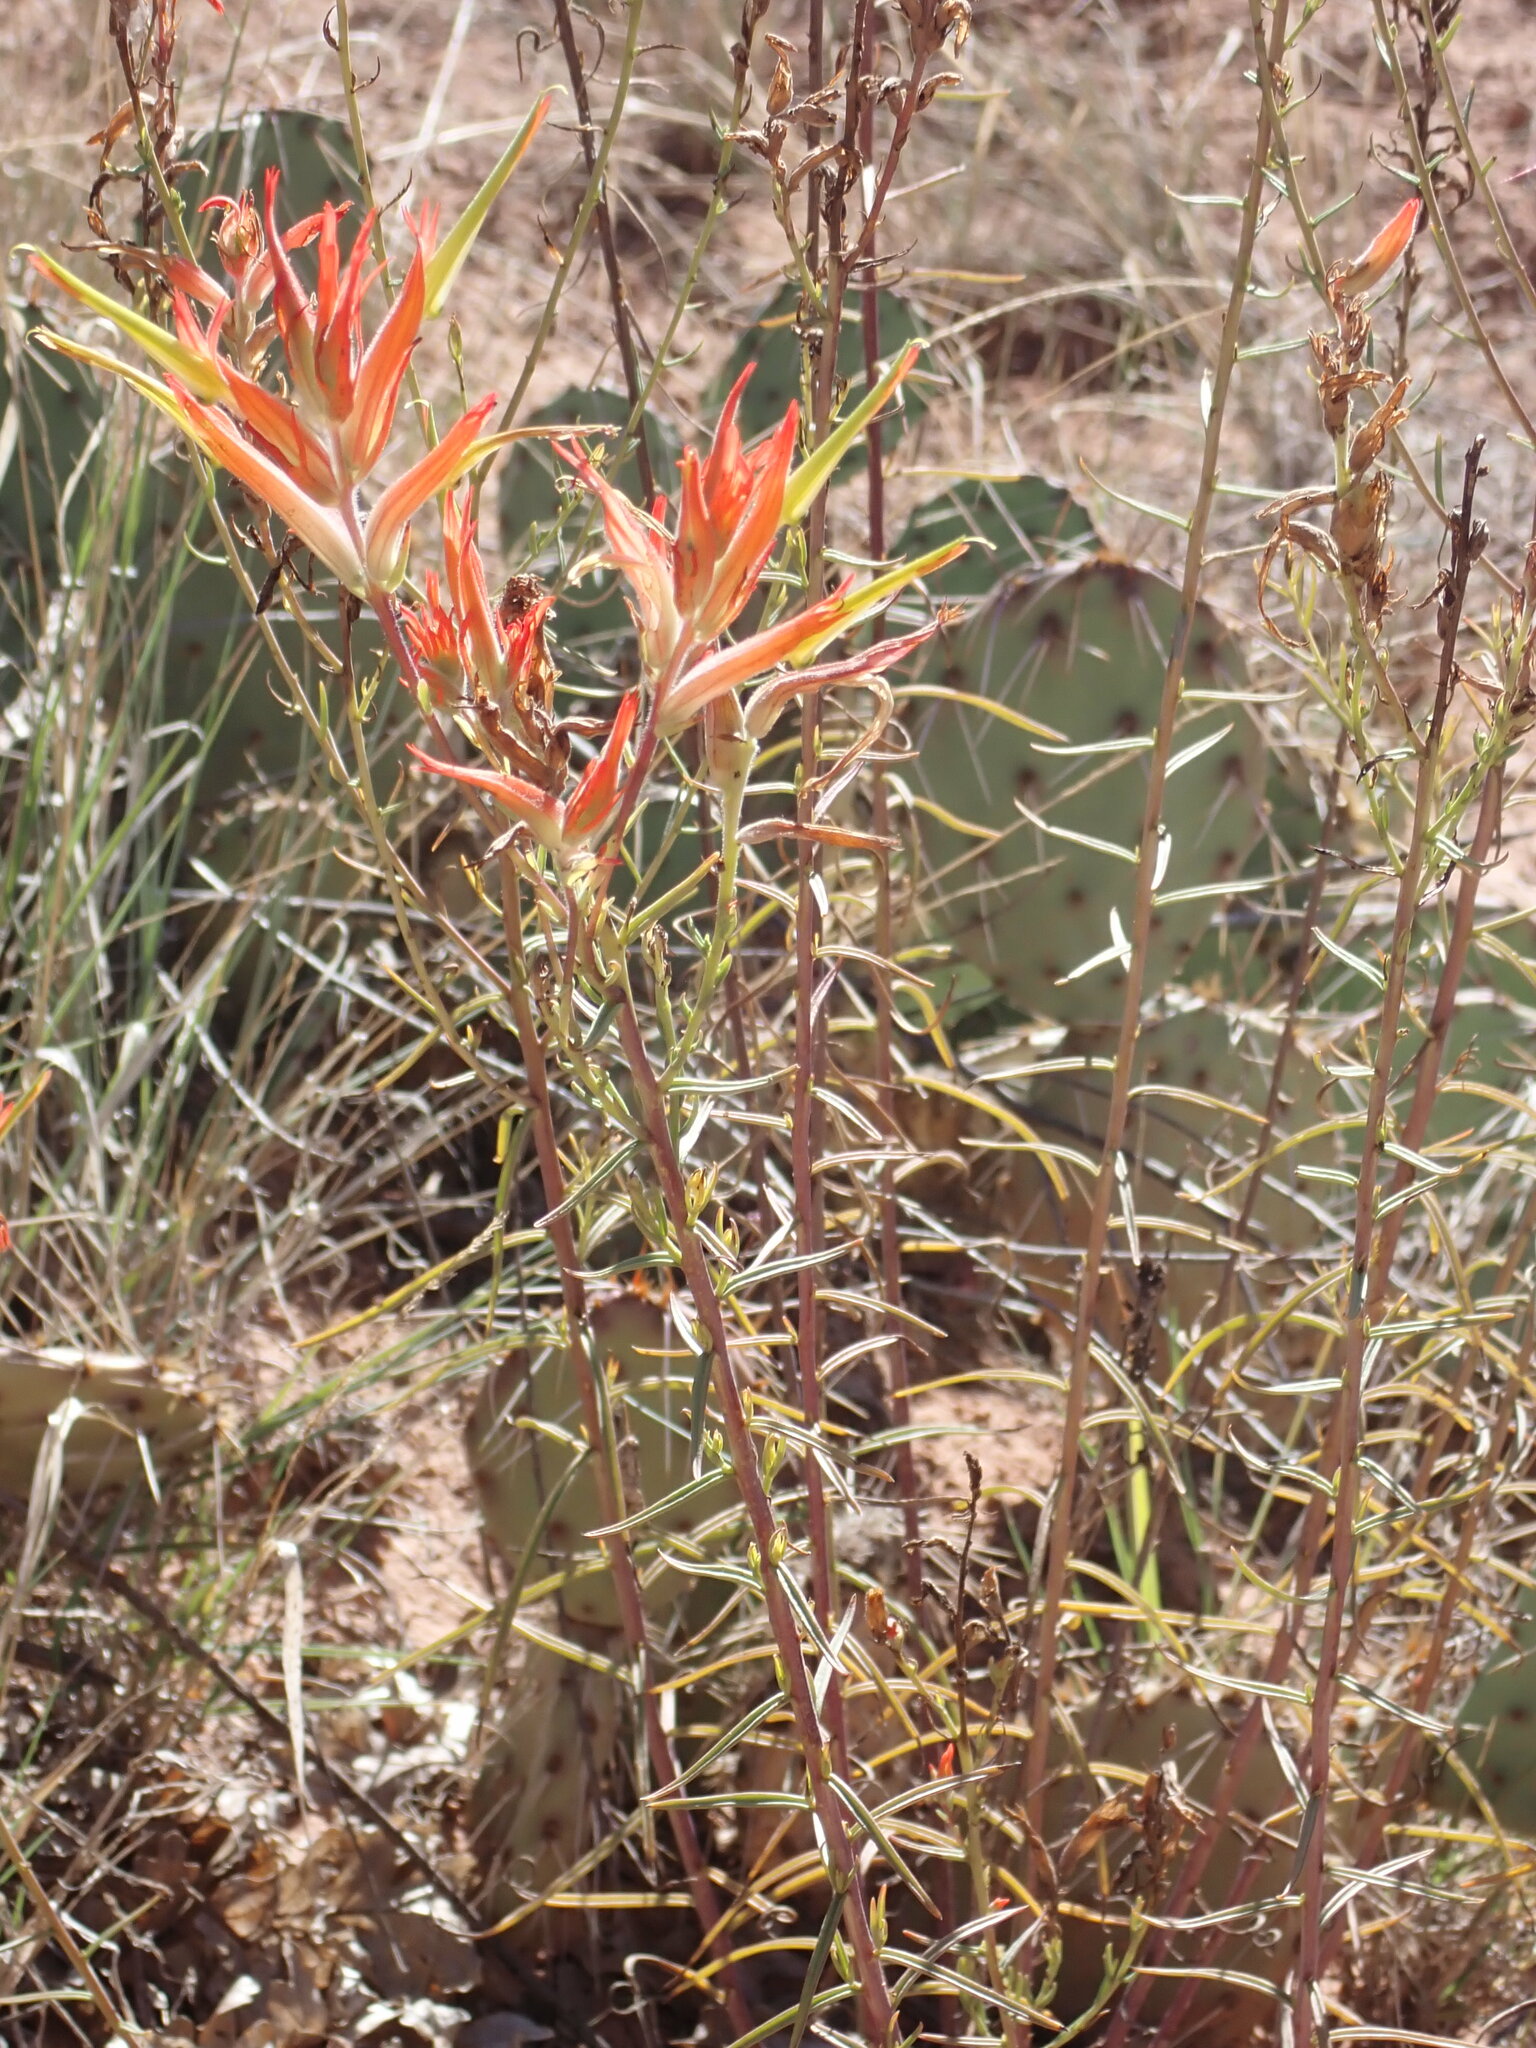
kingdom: Plantae
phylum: Tracheophyta
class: Magnoliopsida
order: Lamiales
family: Orobanchaceae
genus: Castilleja
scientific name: Castilleja linariifolia
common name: Wyoming paintbrush
